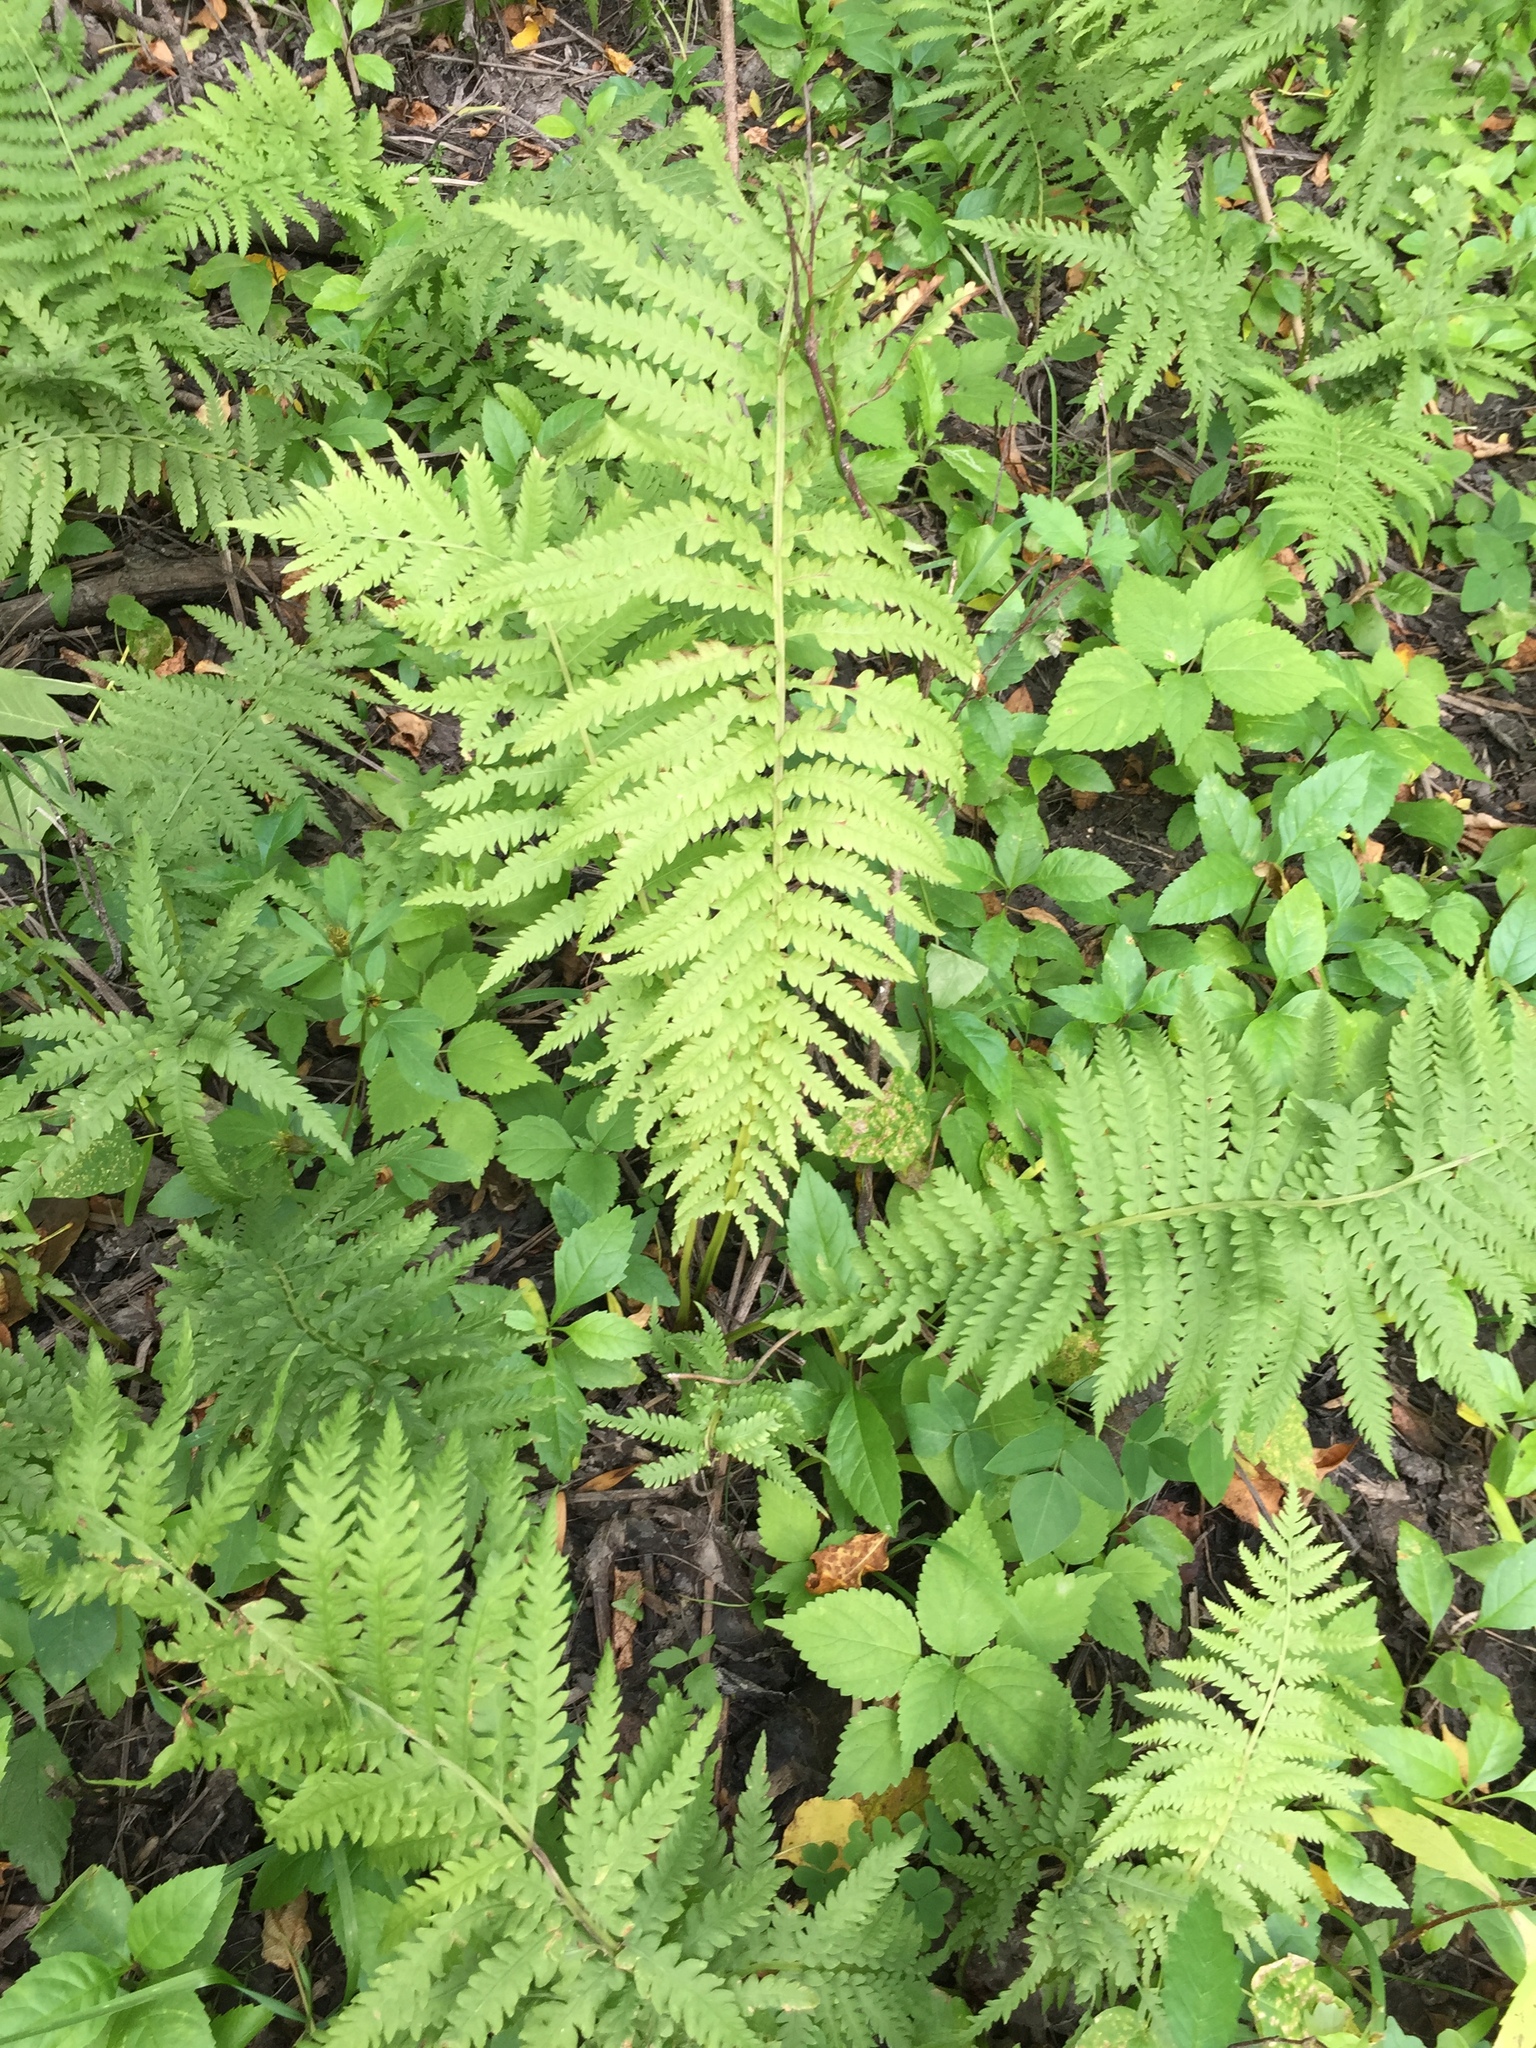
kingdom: Plantae
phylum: Tracheophyta
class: Polypodiopsida
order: Polypodiales
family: Onocleaceae
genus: Matteuccia
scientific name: Matteuccia struthiopteris
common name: Ostrich fern
